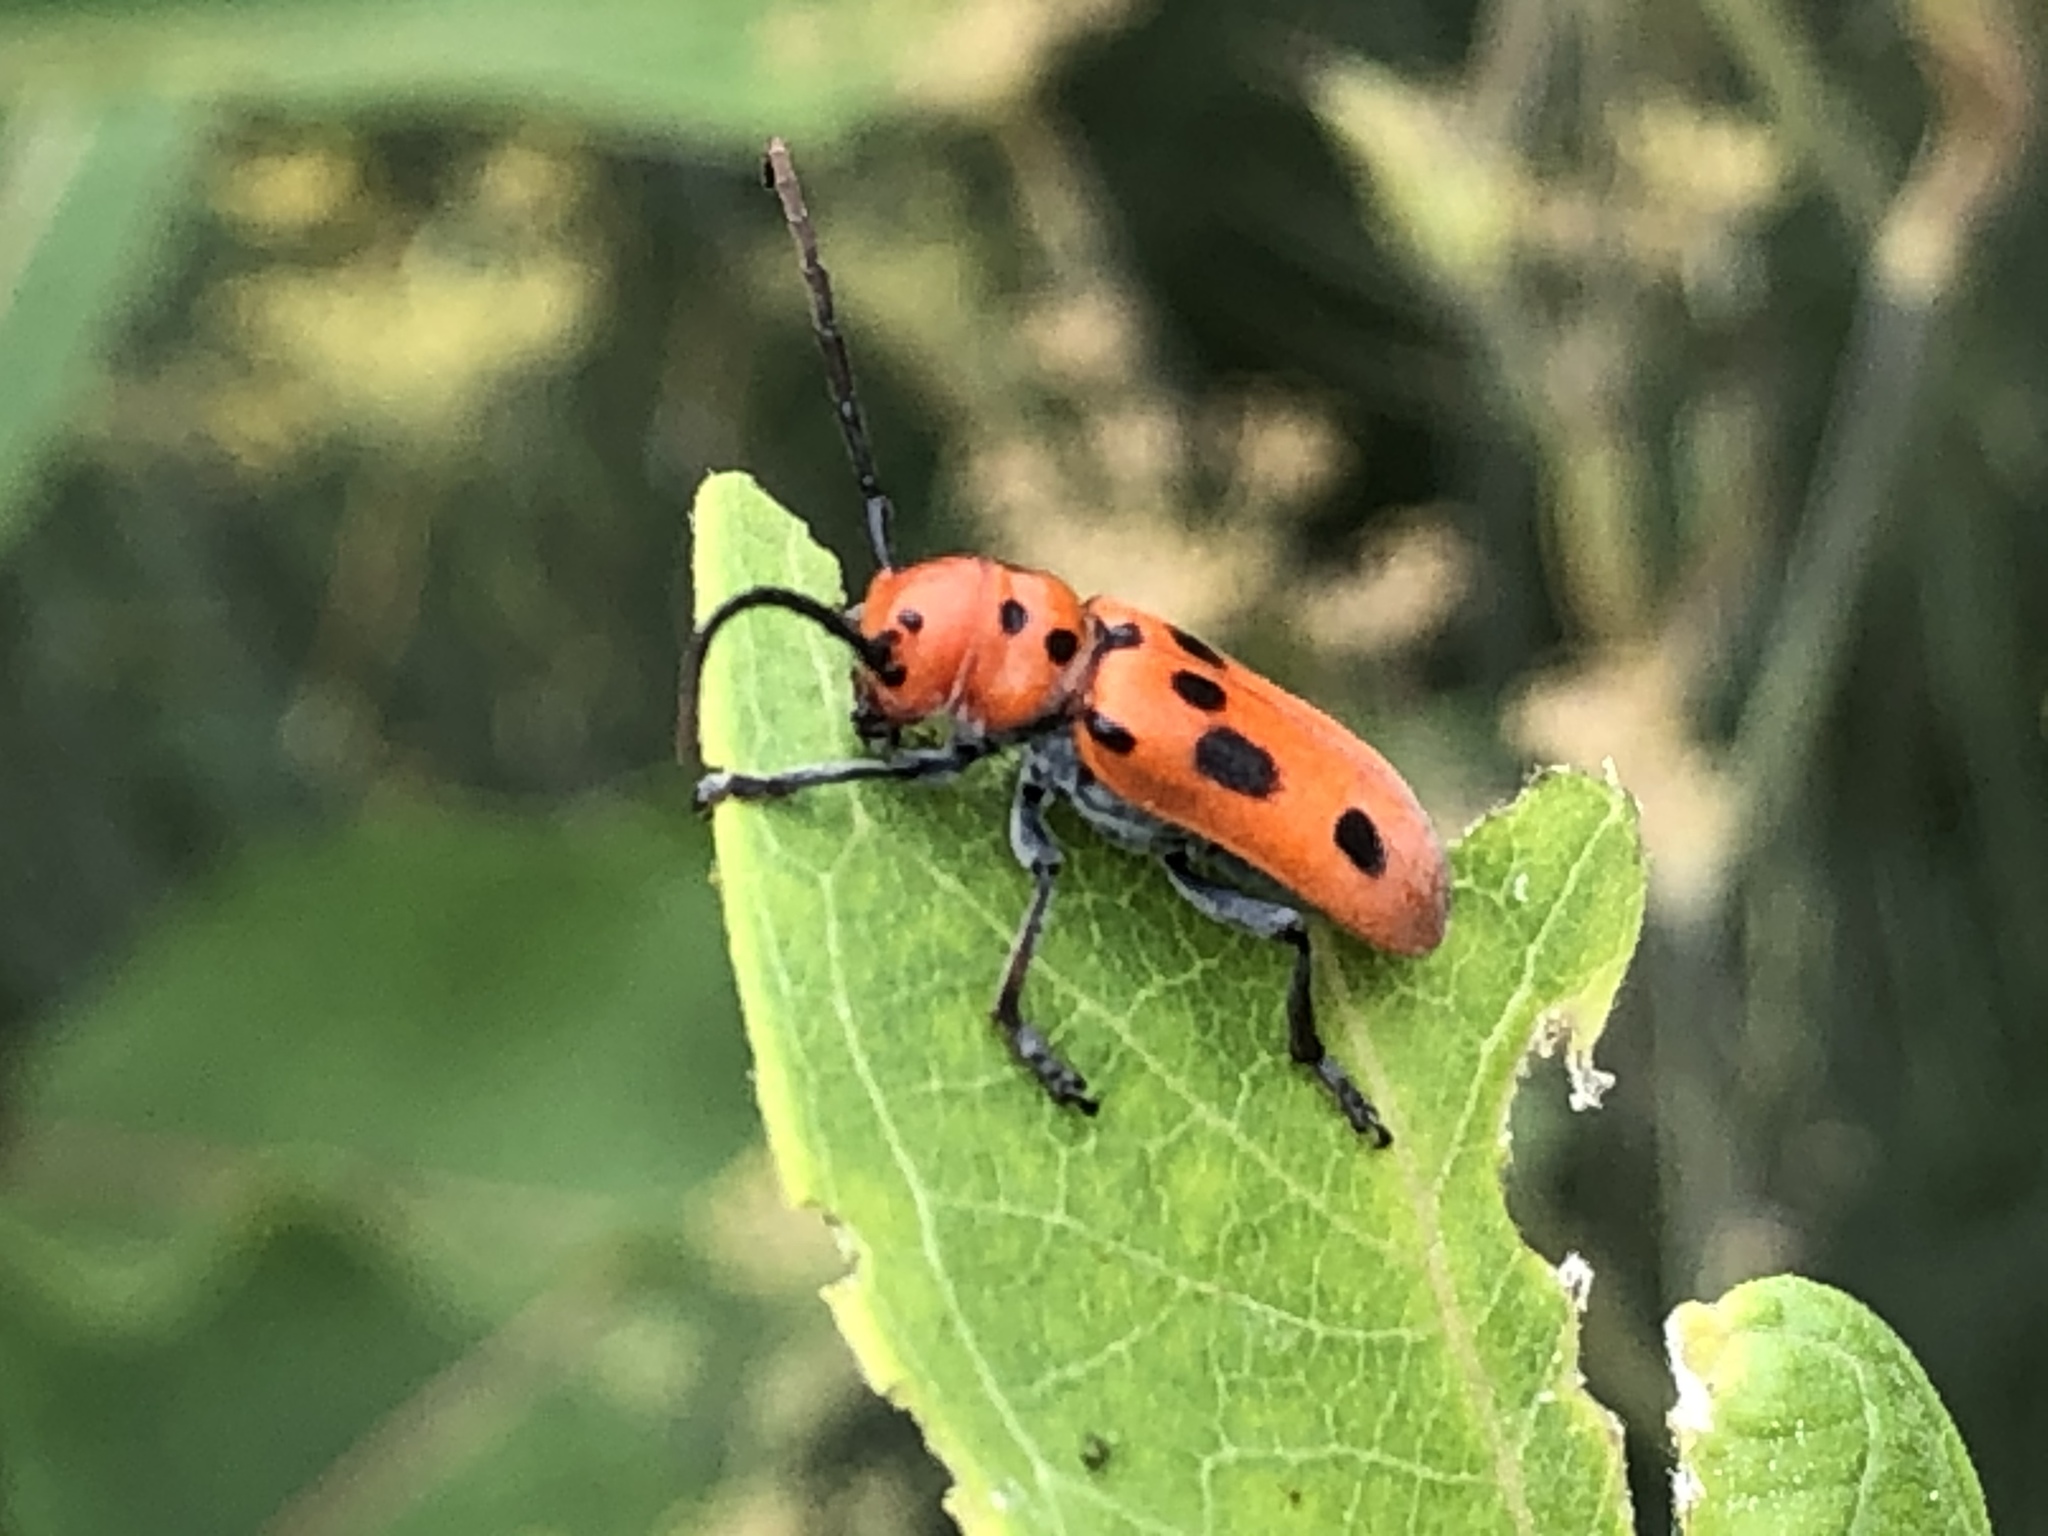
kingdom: Animalia
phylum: Arthropoda
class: Insecta
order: Coleoptera
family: Cerambycidae
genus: Tetraopes
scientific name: Tetraopes tetrophthalmus
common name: Red milkweed beetle
